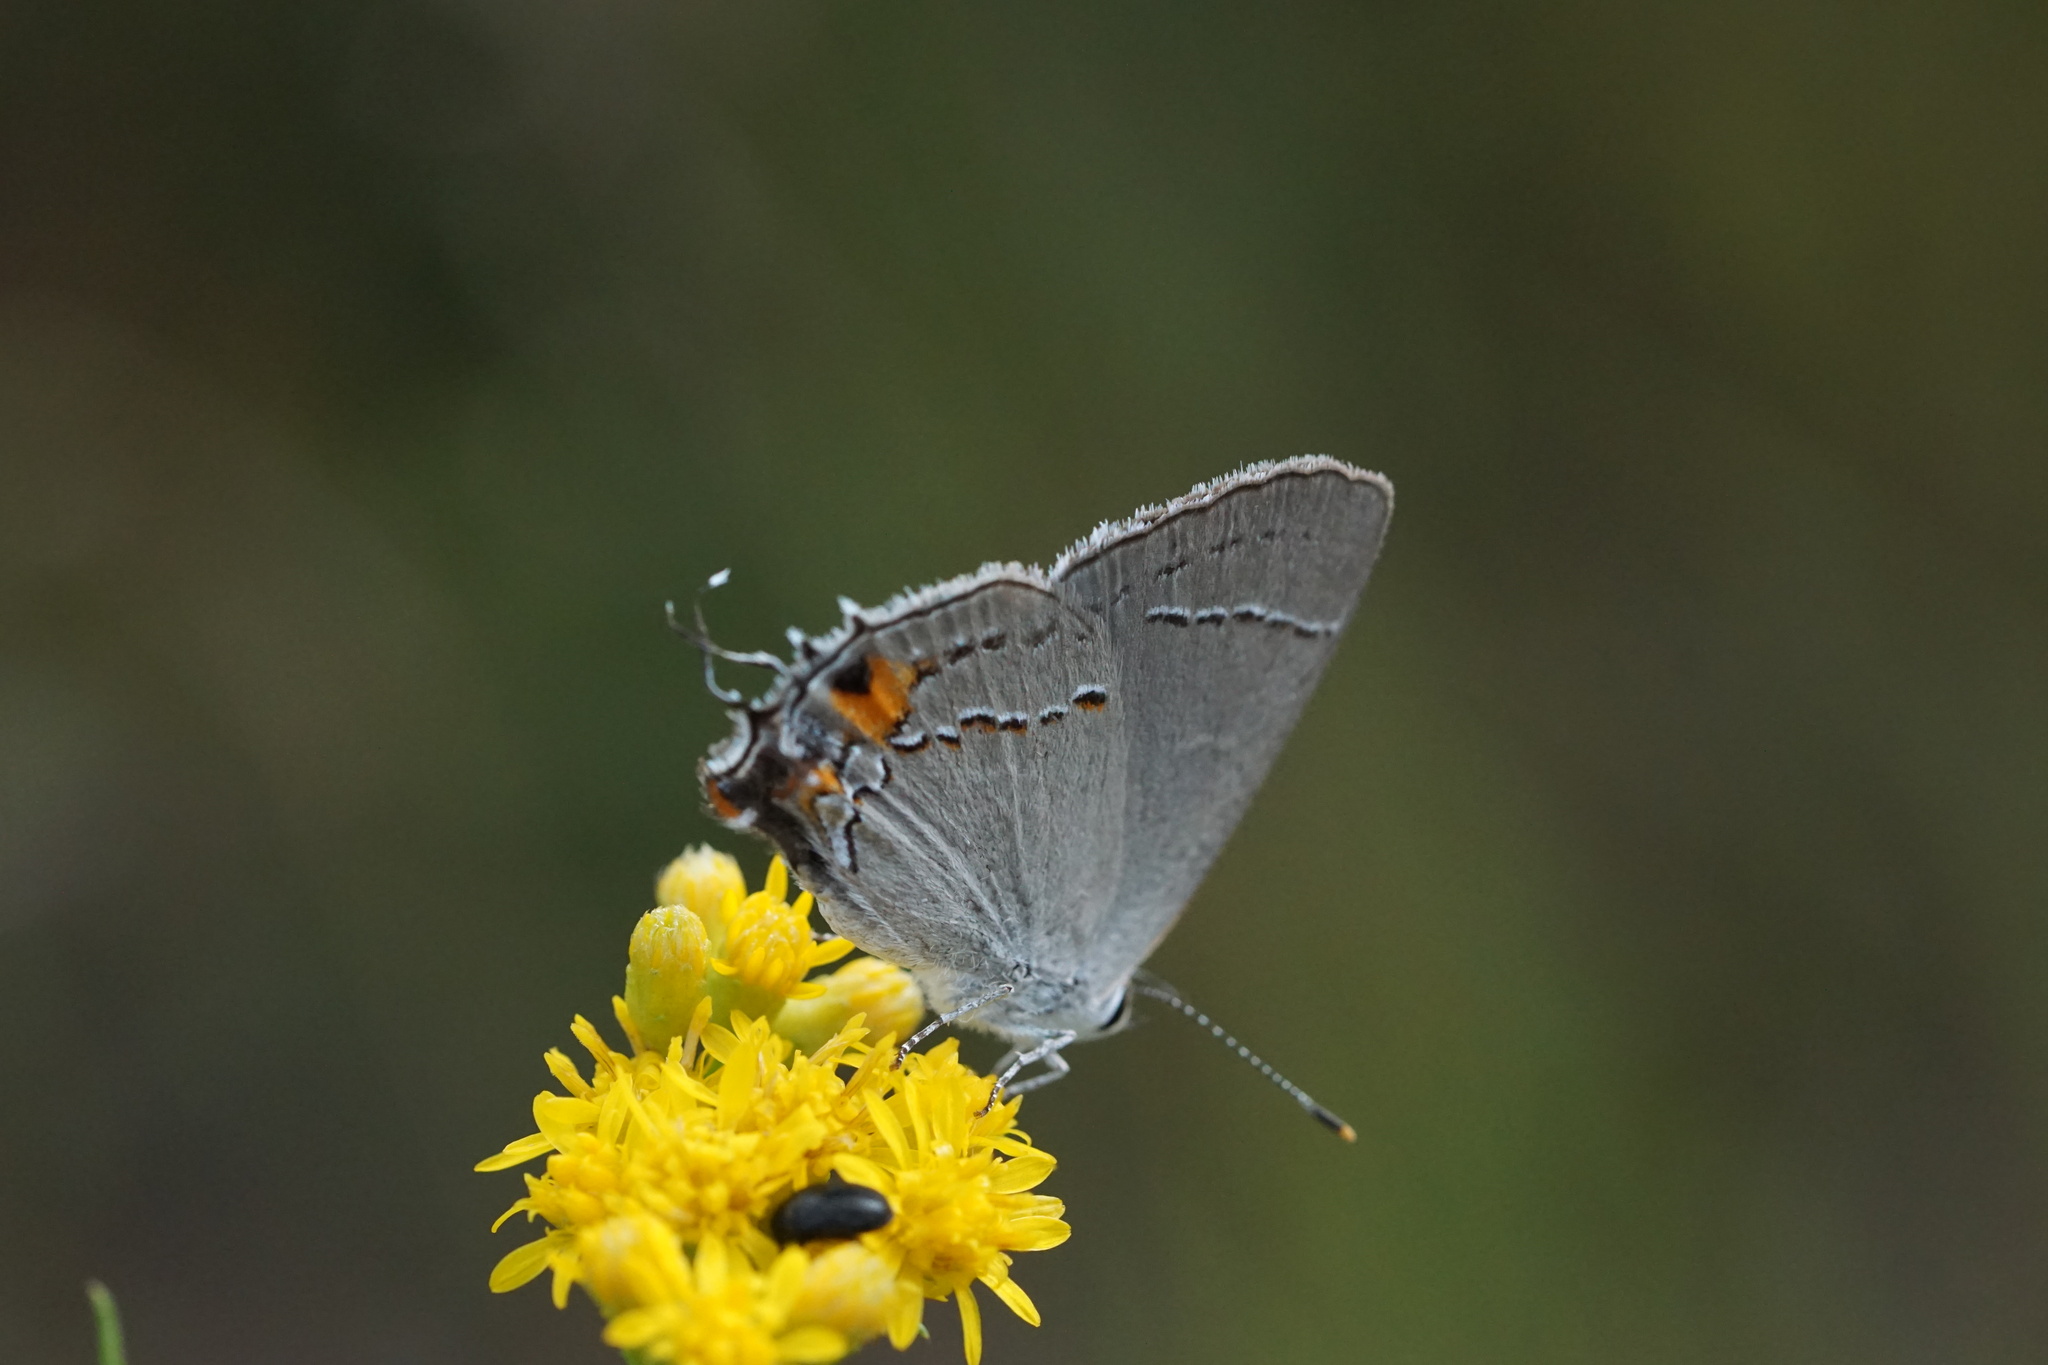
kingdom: Animalia
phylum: Arthropoda
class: Insecta
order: Lepidoptera
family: Lycaenidae
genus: Strymon
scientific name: Strymon melinus
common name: Gray hairstreak
